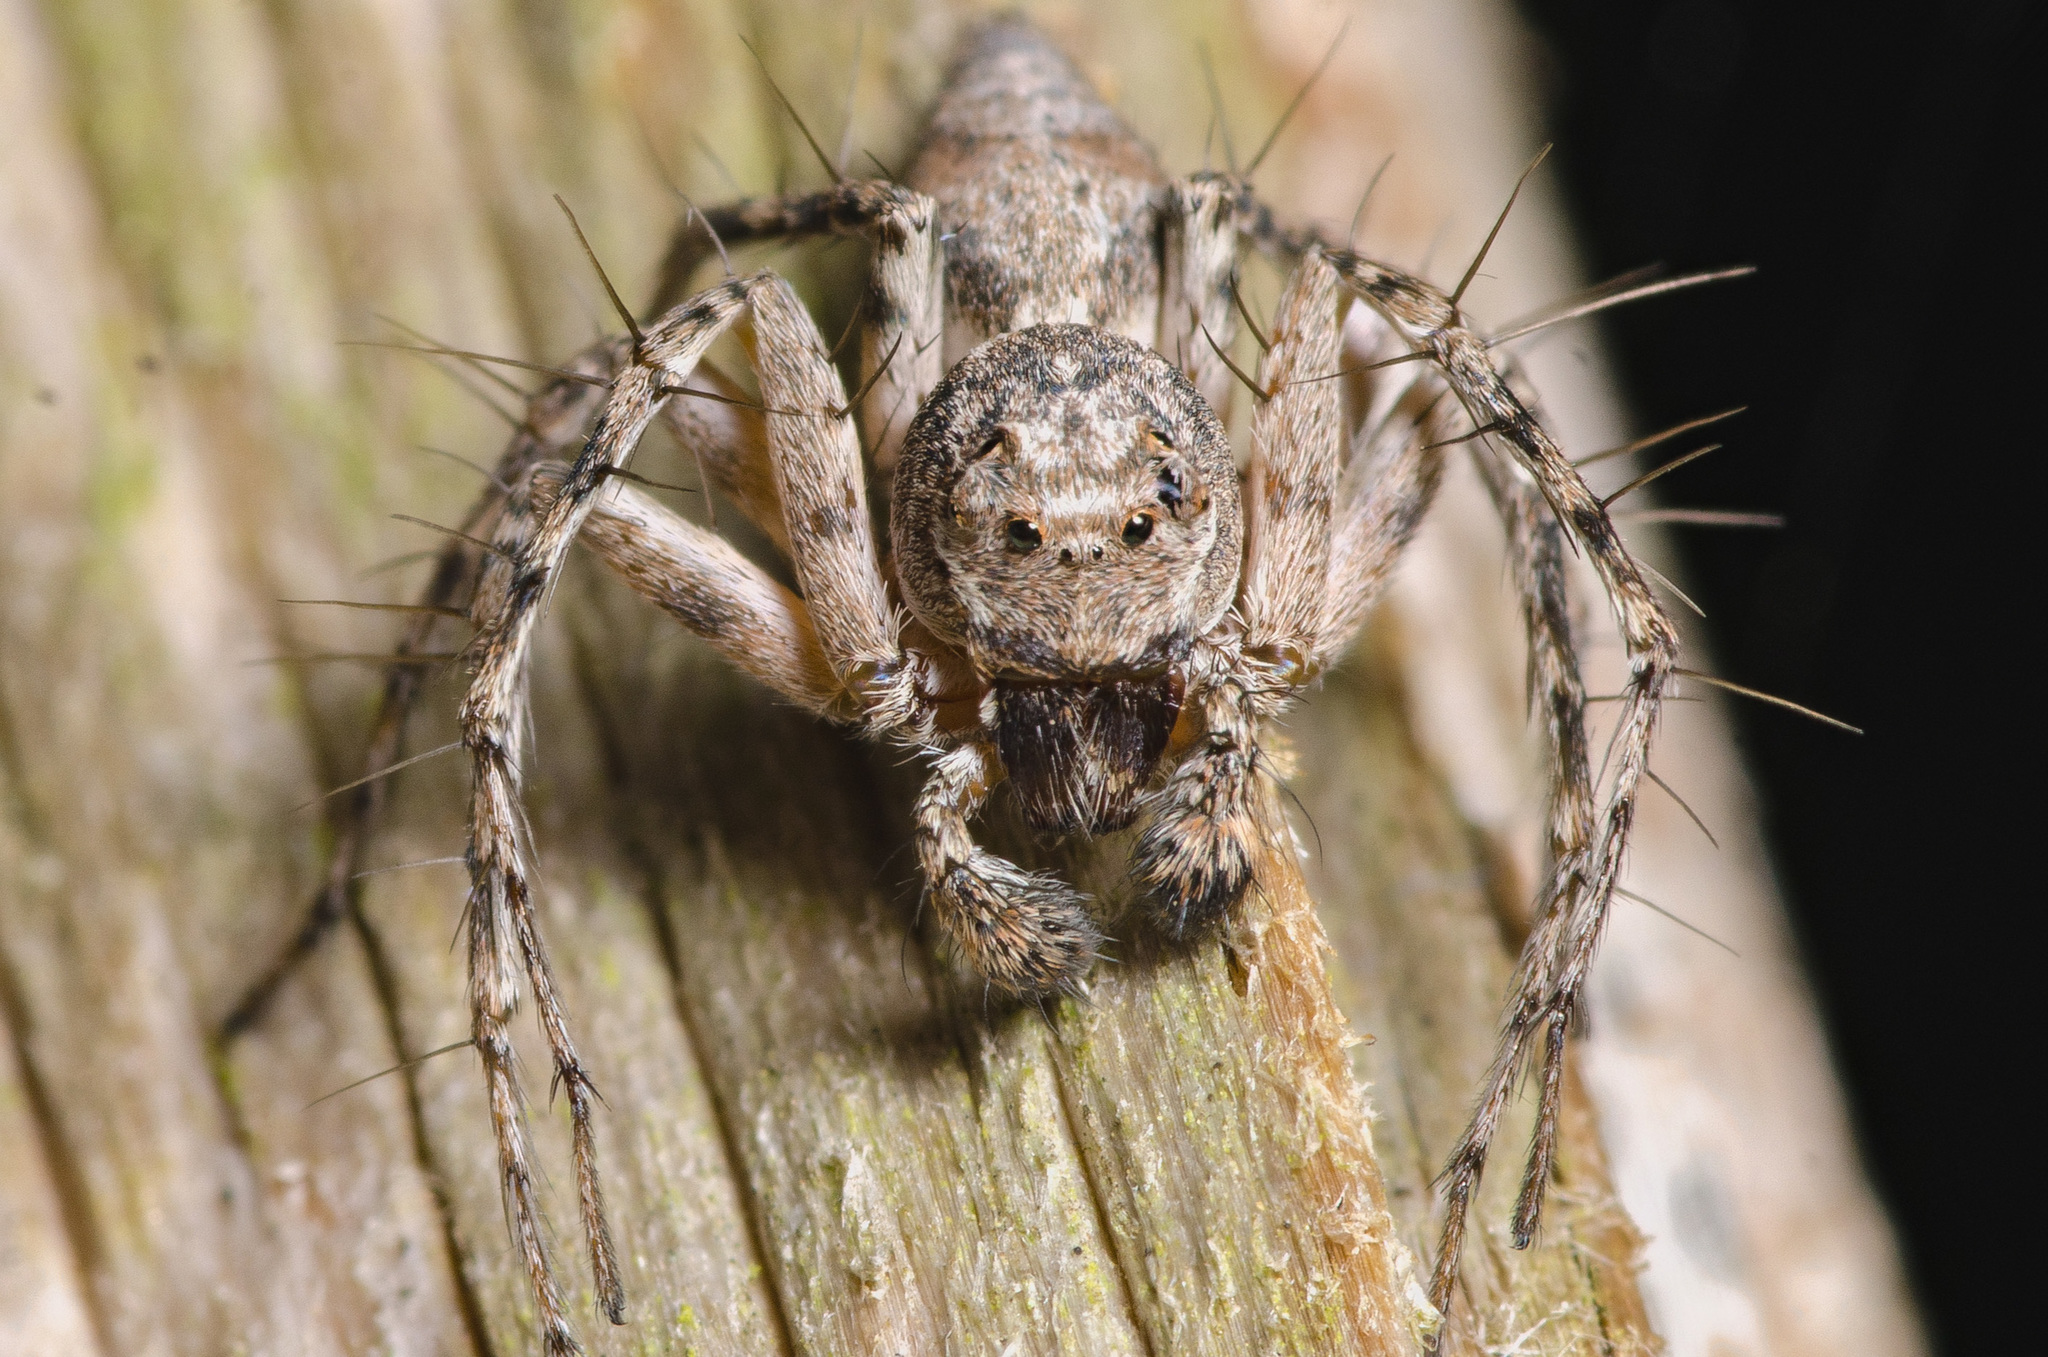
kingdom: Animalia
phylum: Arthropoda
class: Arachnida
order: Araneae
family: Oxyopidae
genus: Hamataliwa
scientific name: Hamataliwa grisea
